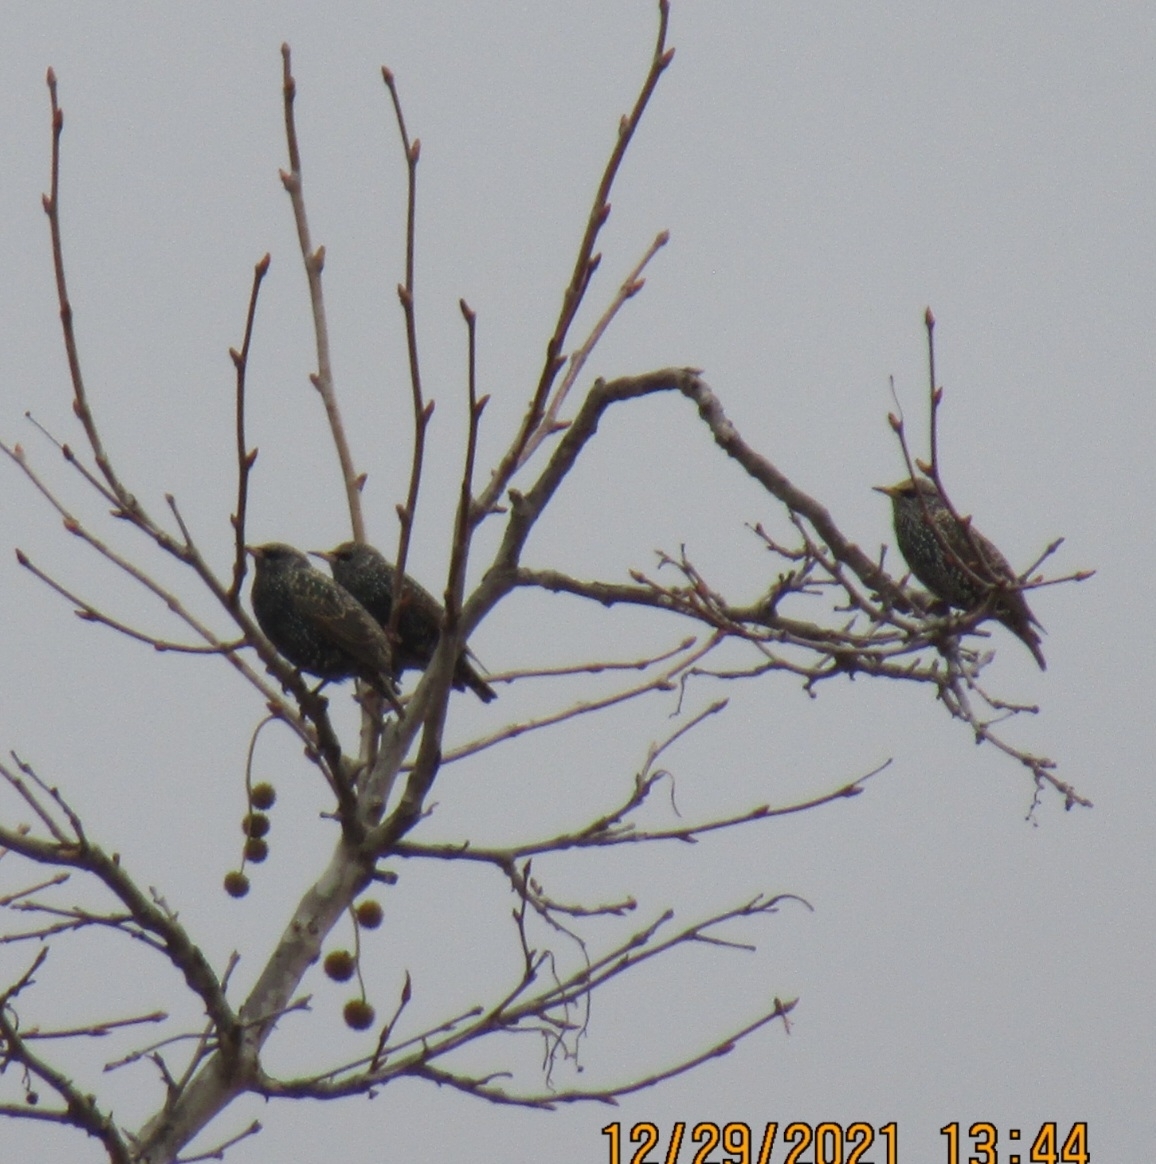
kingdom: Animalia
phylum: Chordata
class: Aves
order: Passeriformes
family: Sturnidae
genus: Sturnus
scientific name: Sturnus vulgaris
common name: Common starling
